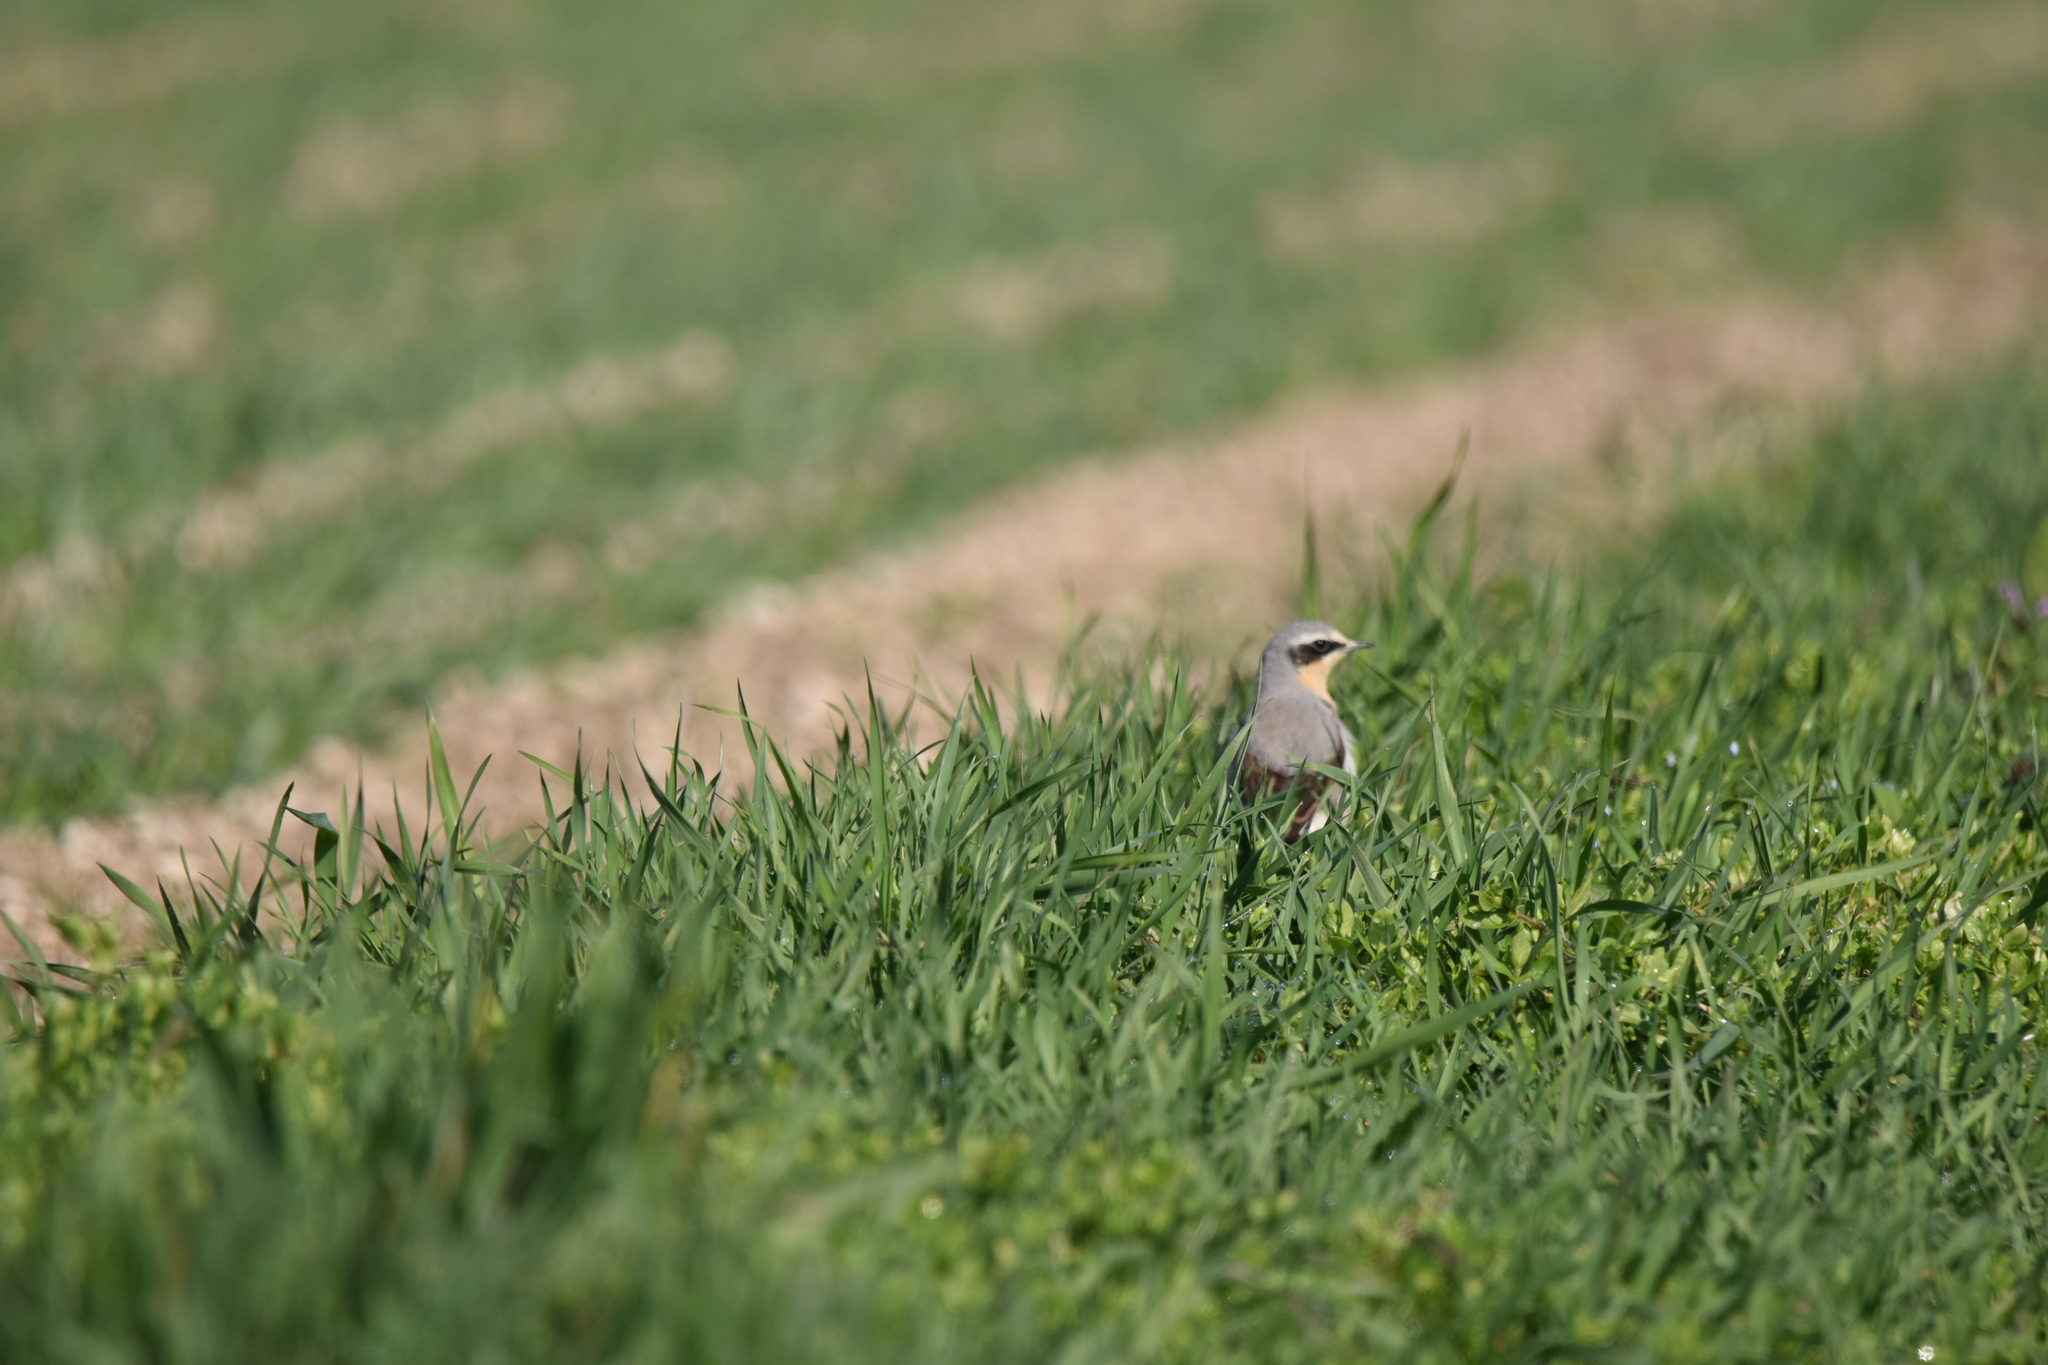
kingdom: Animalia
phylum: Chordata
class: Aves
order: Passeriformes
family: Muscicapidae
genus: Oenanthe
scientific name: Oenanthe oenanthe
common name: Northern wheatear
